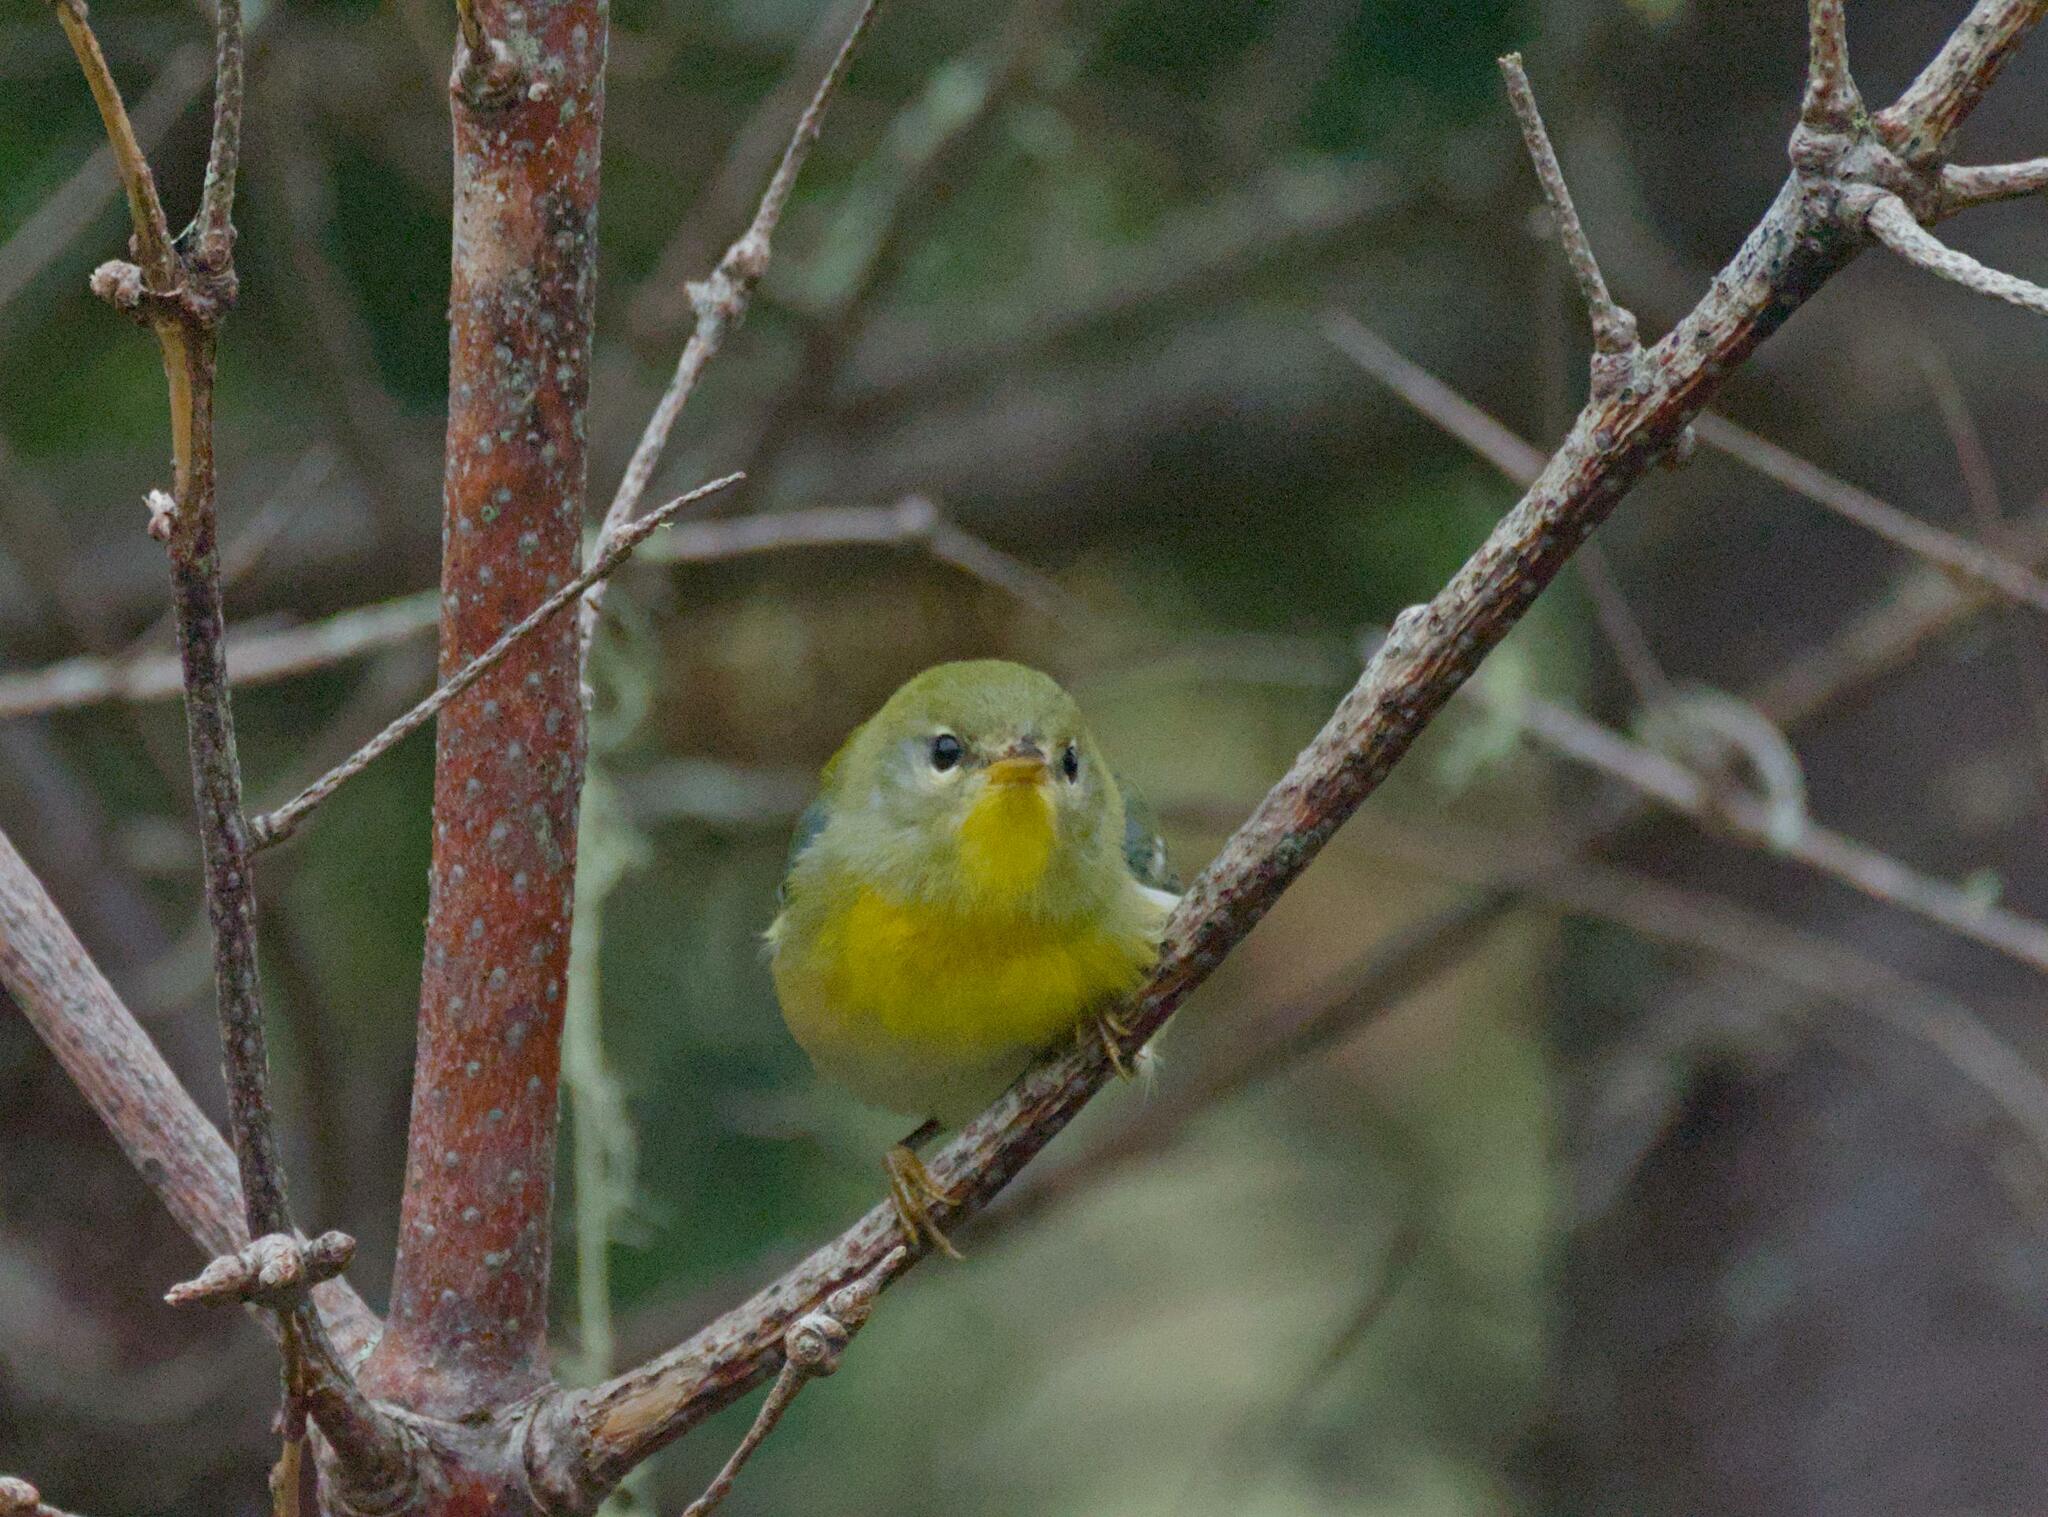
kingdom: Animalia
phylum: Chordata
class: Aves
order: Passeriformes
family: Parulidae
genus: Setophaga
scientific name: Setophaga americana
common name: Northern parula
